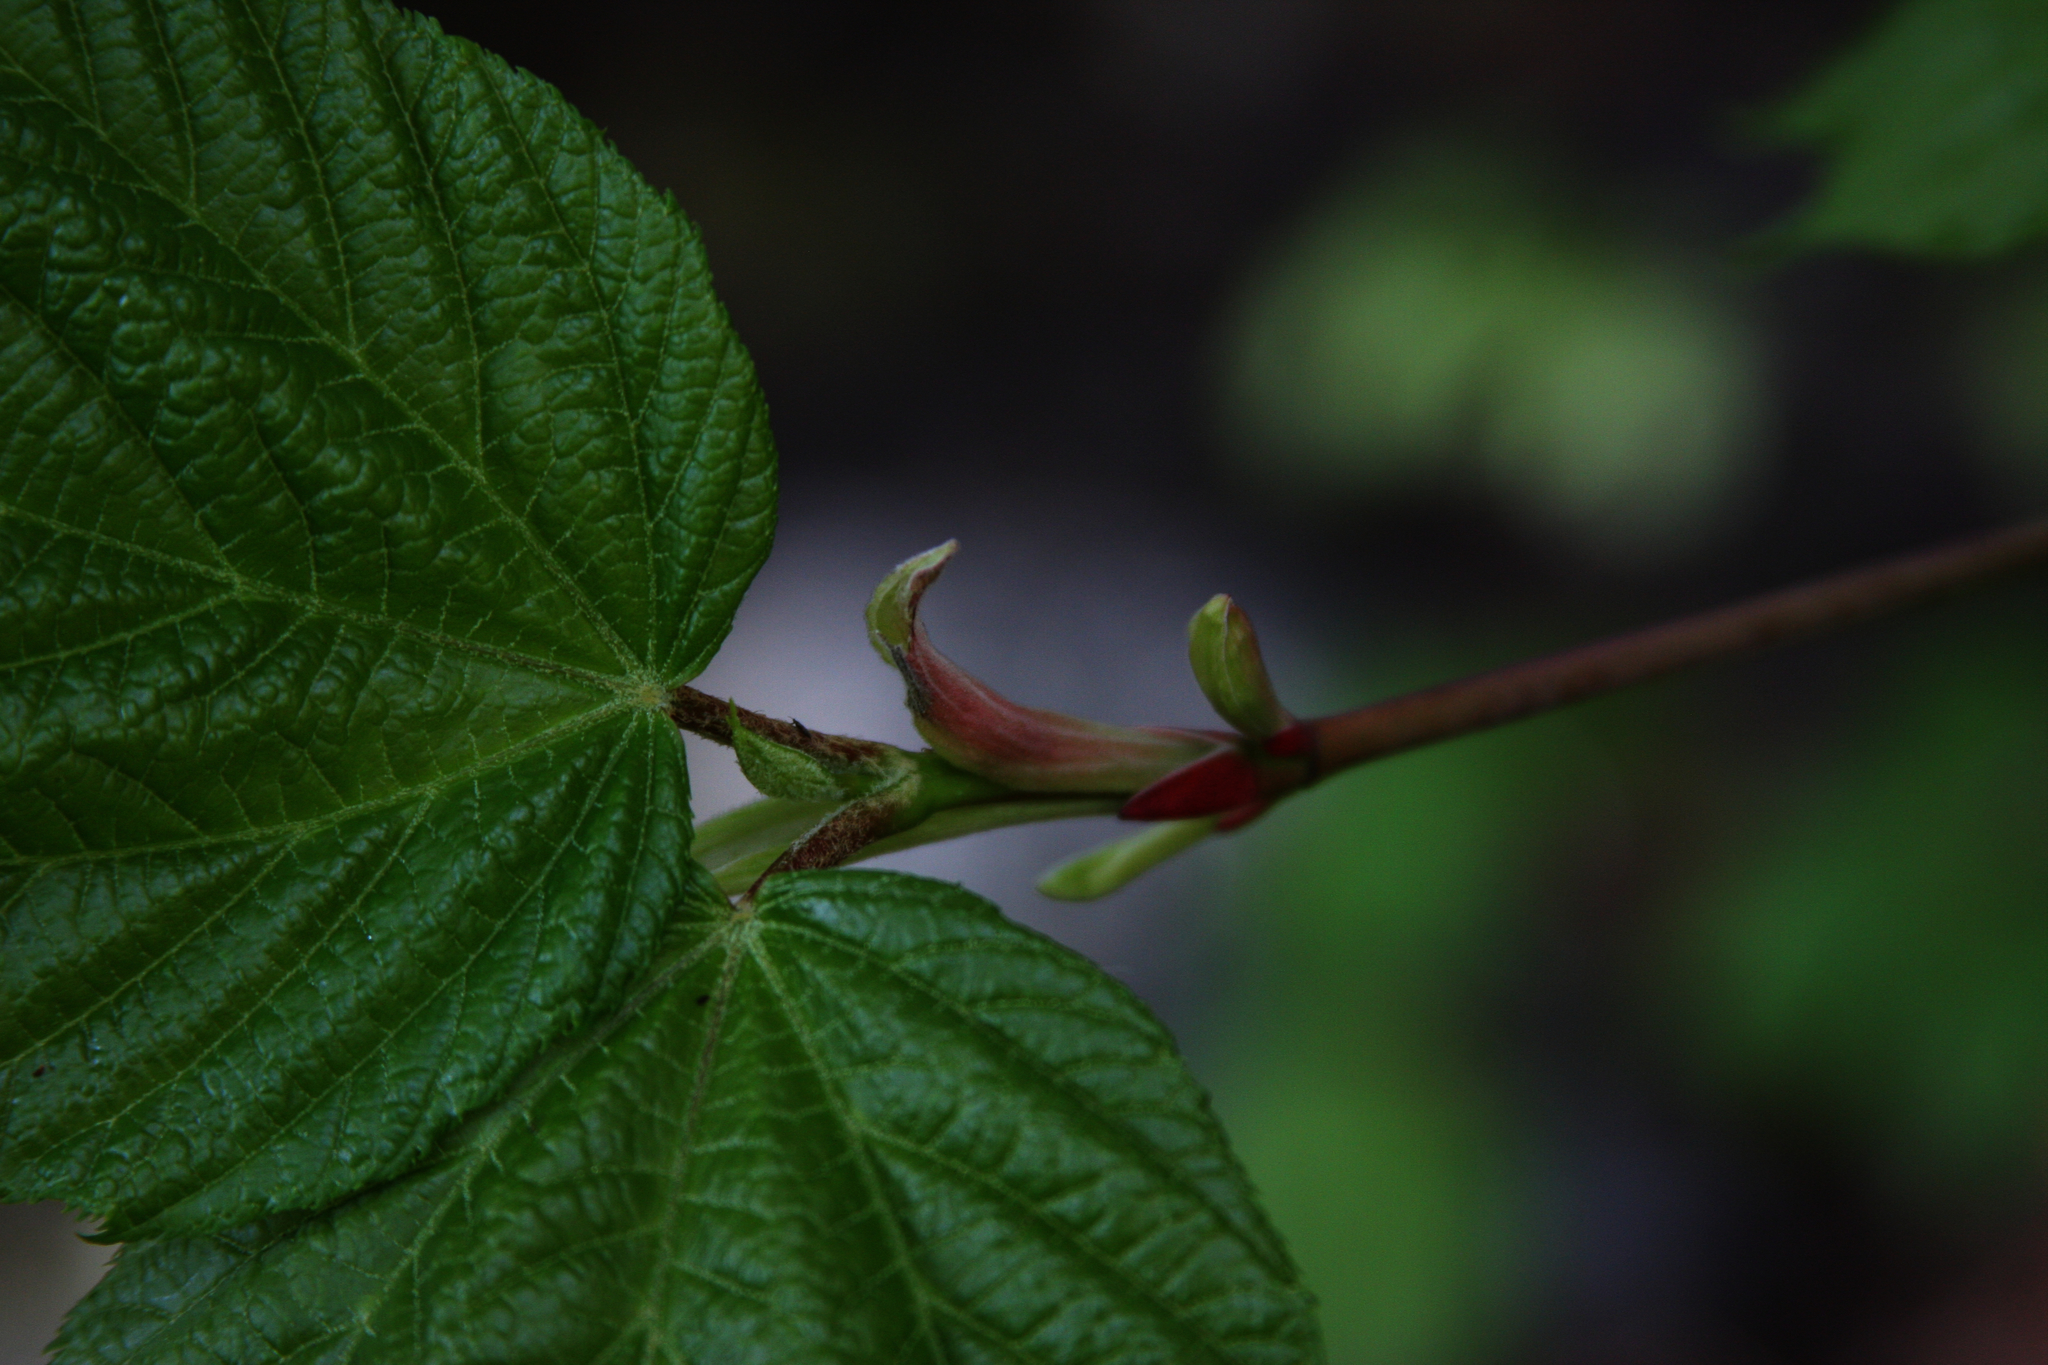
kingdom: Plantae
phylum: Tracheophyta
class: Magnoliopsida
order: Sapindales
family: Sapindaceae
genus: Acer
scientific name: Acer pensylvanicum
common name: Moosewood
